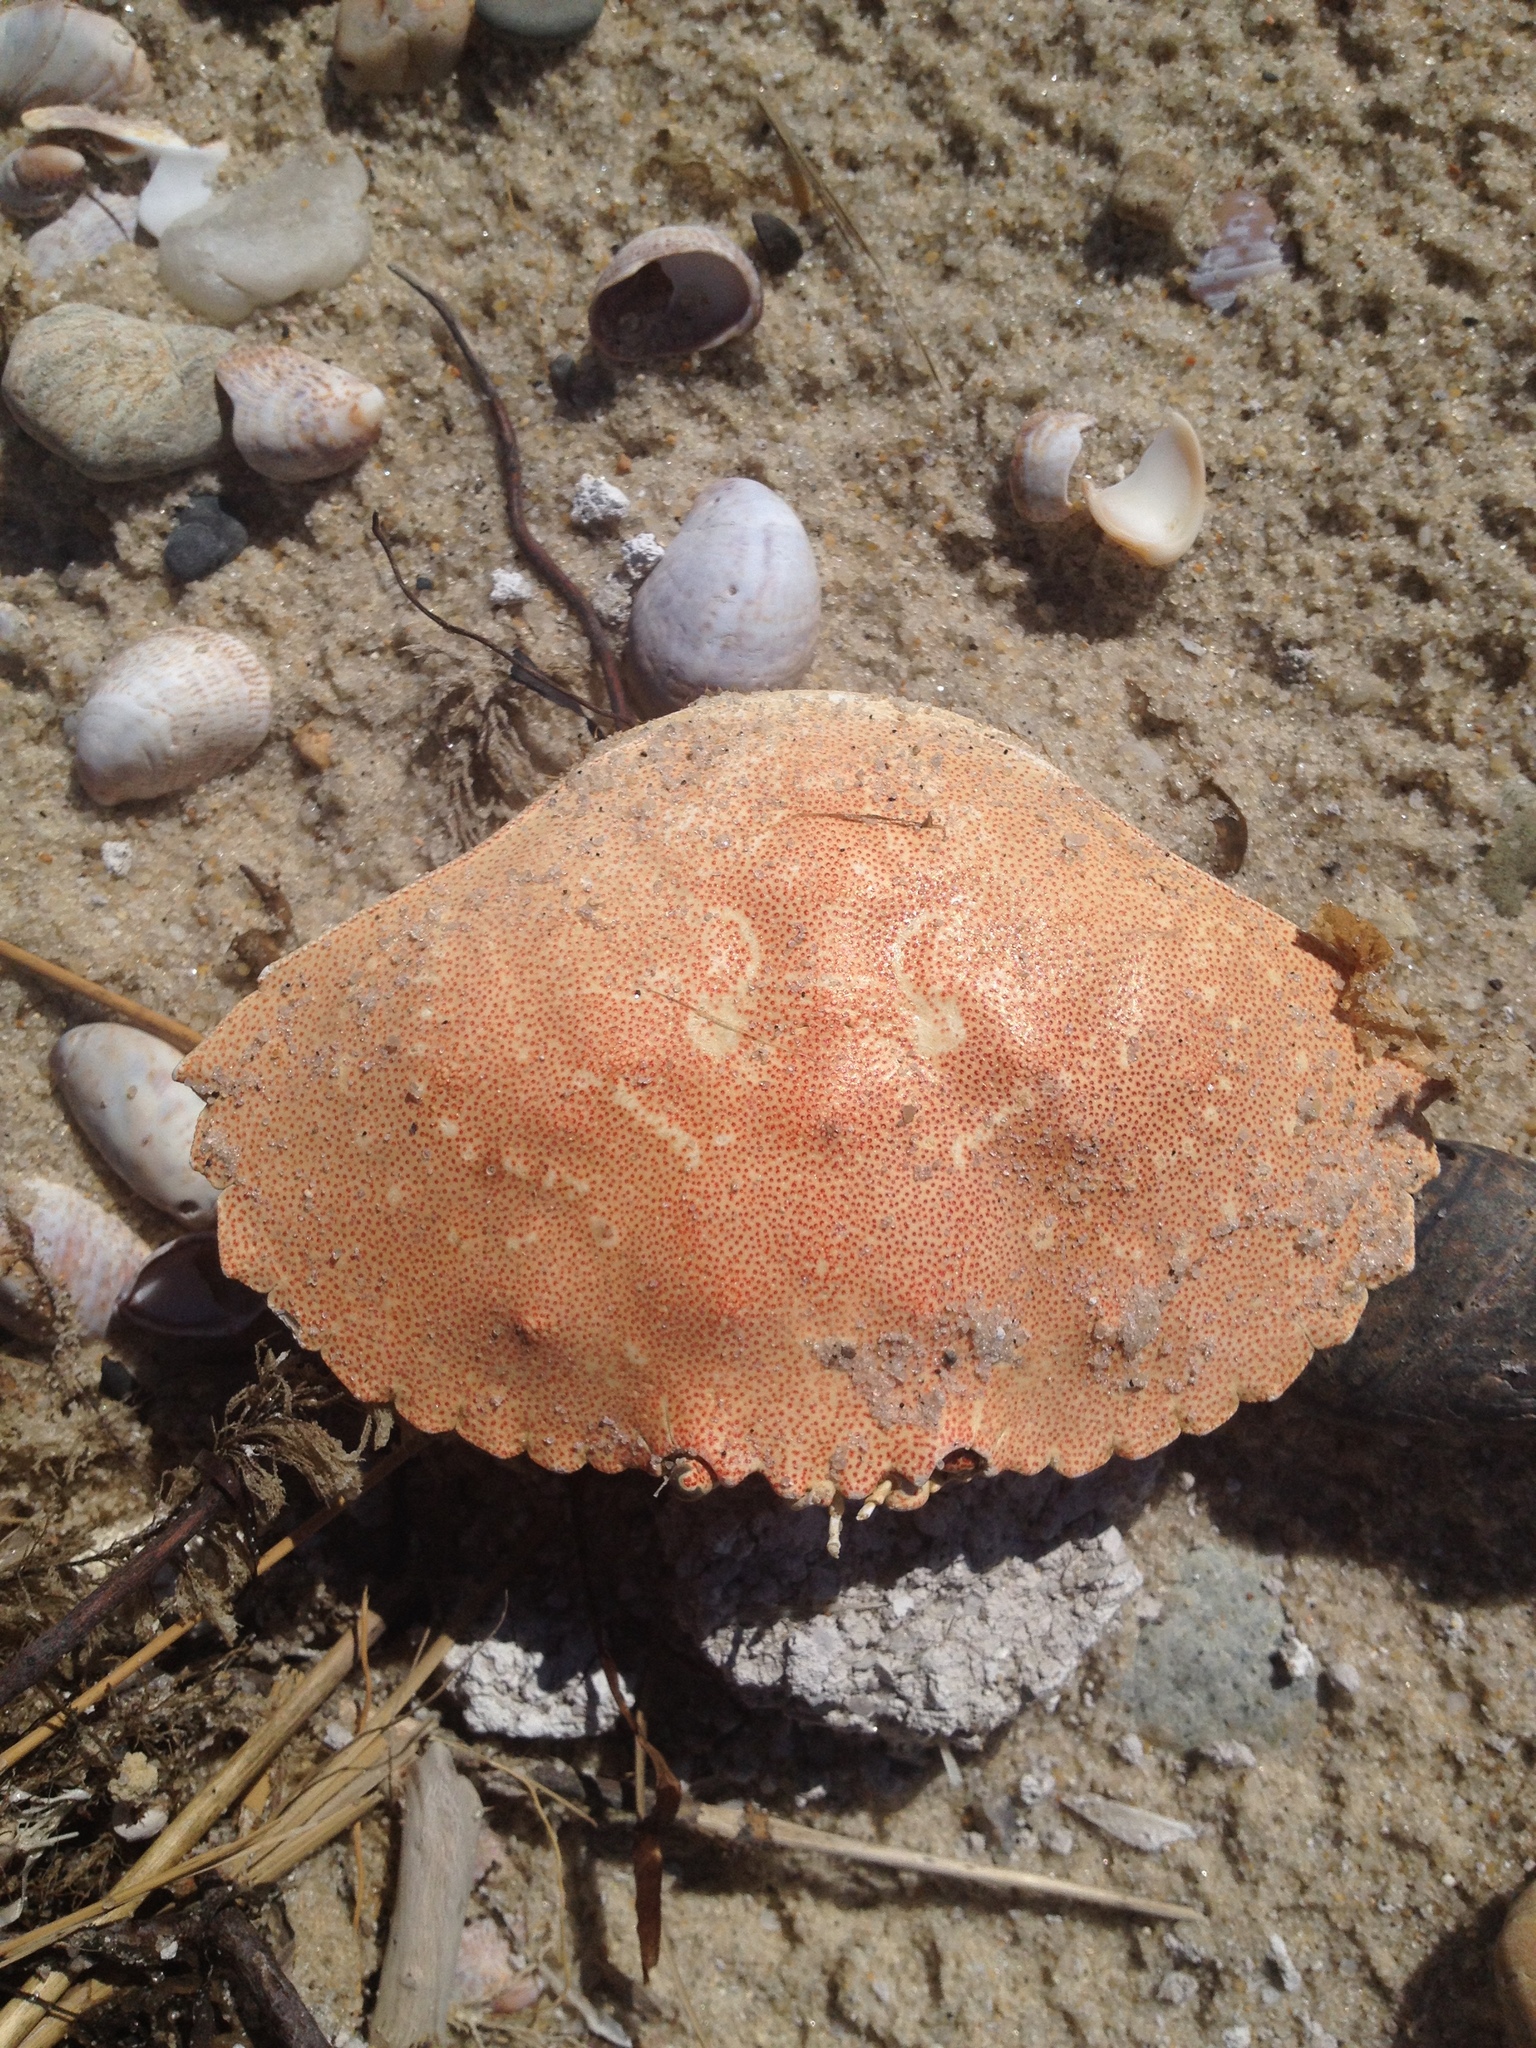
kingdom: Animalia
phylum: Arthropoda
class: Malacostraca
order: Decapoda
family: Cancridae
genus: Cancer
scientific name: Cancer irroratus
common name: Atlantic rock crab
